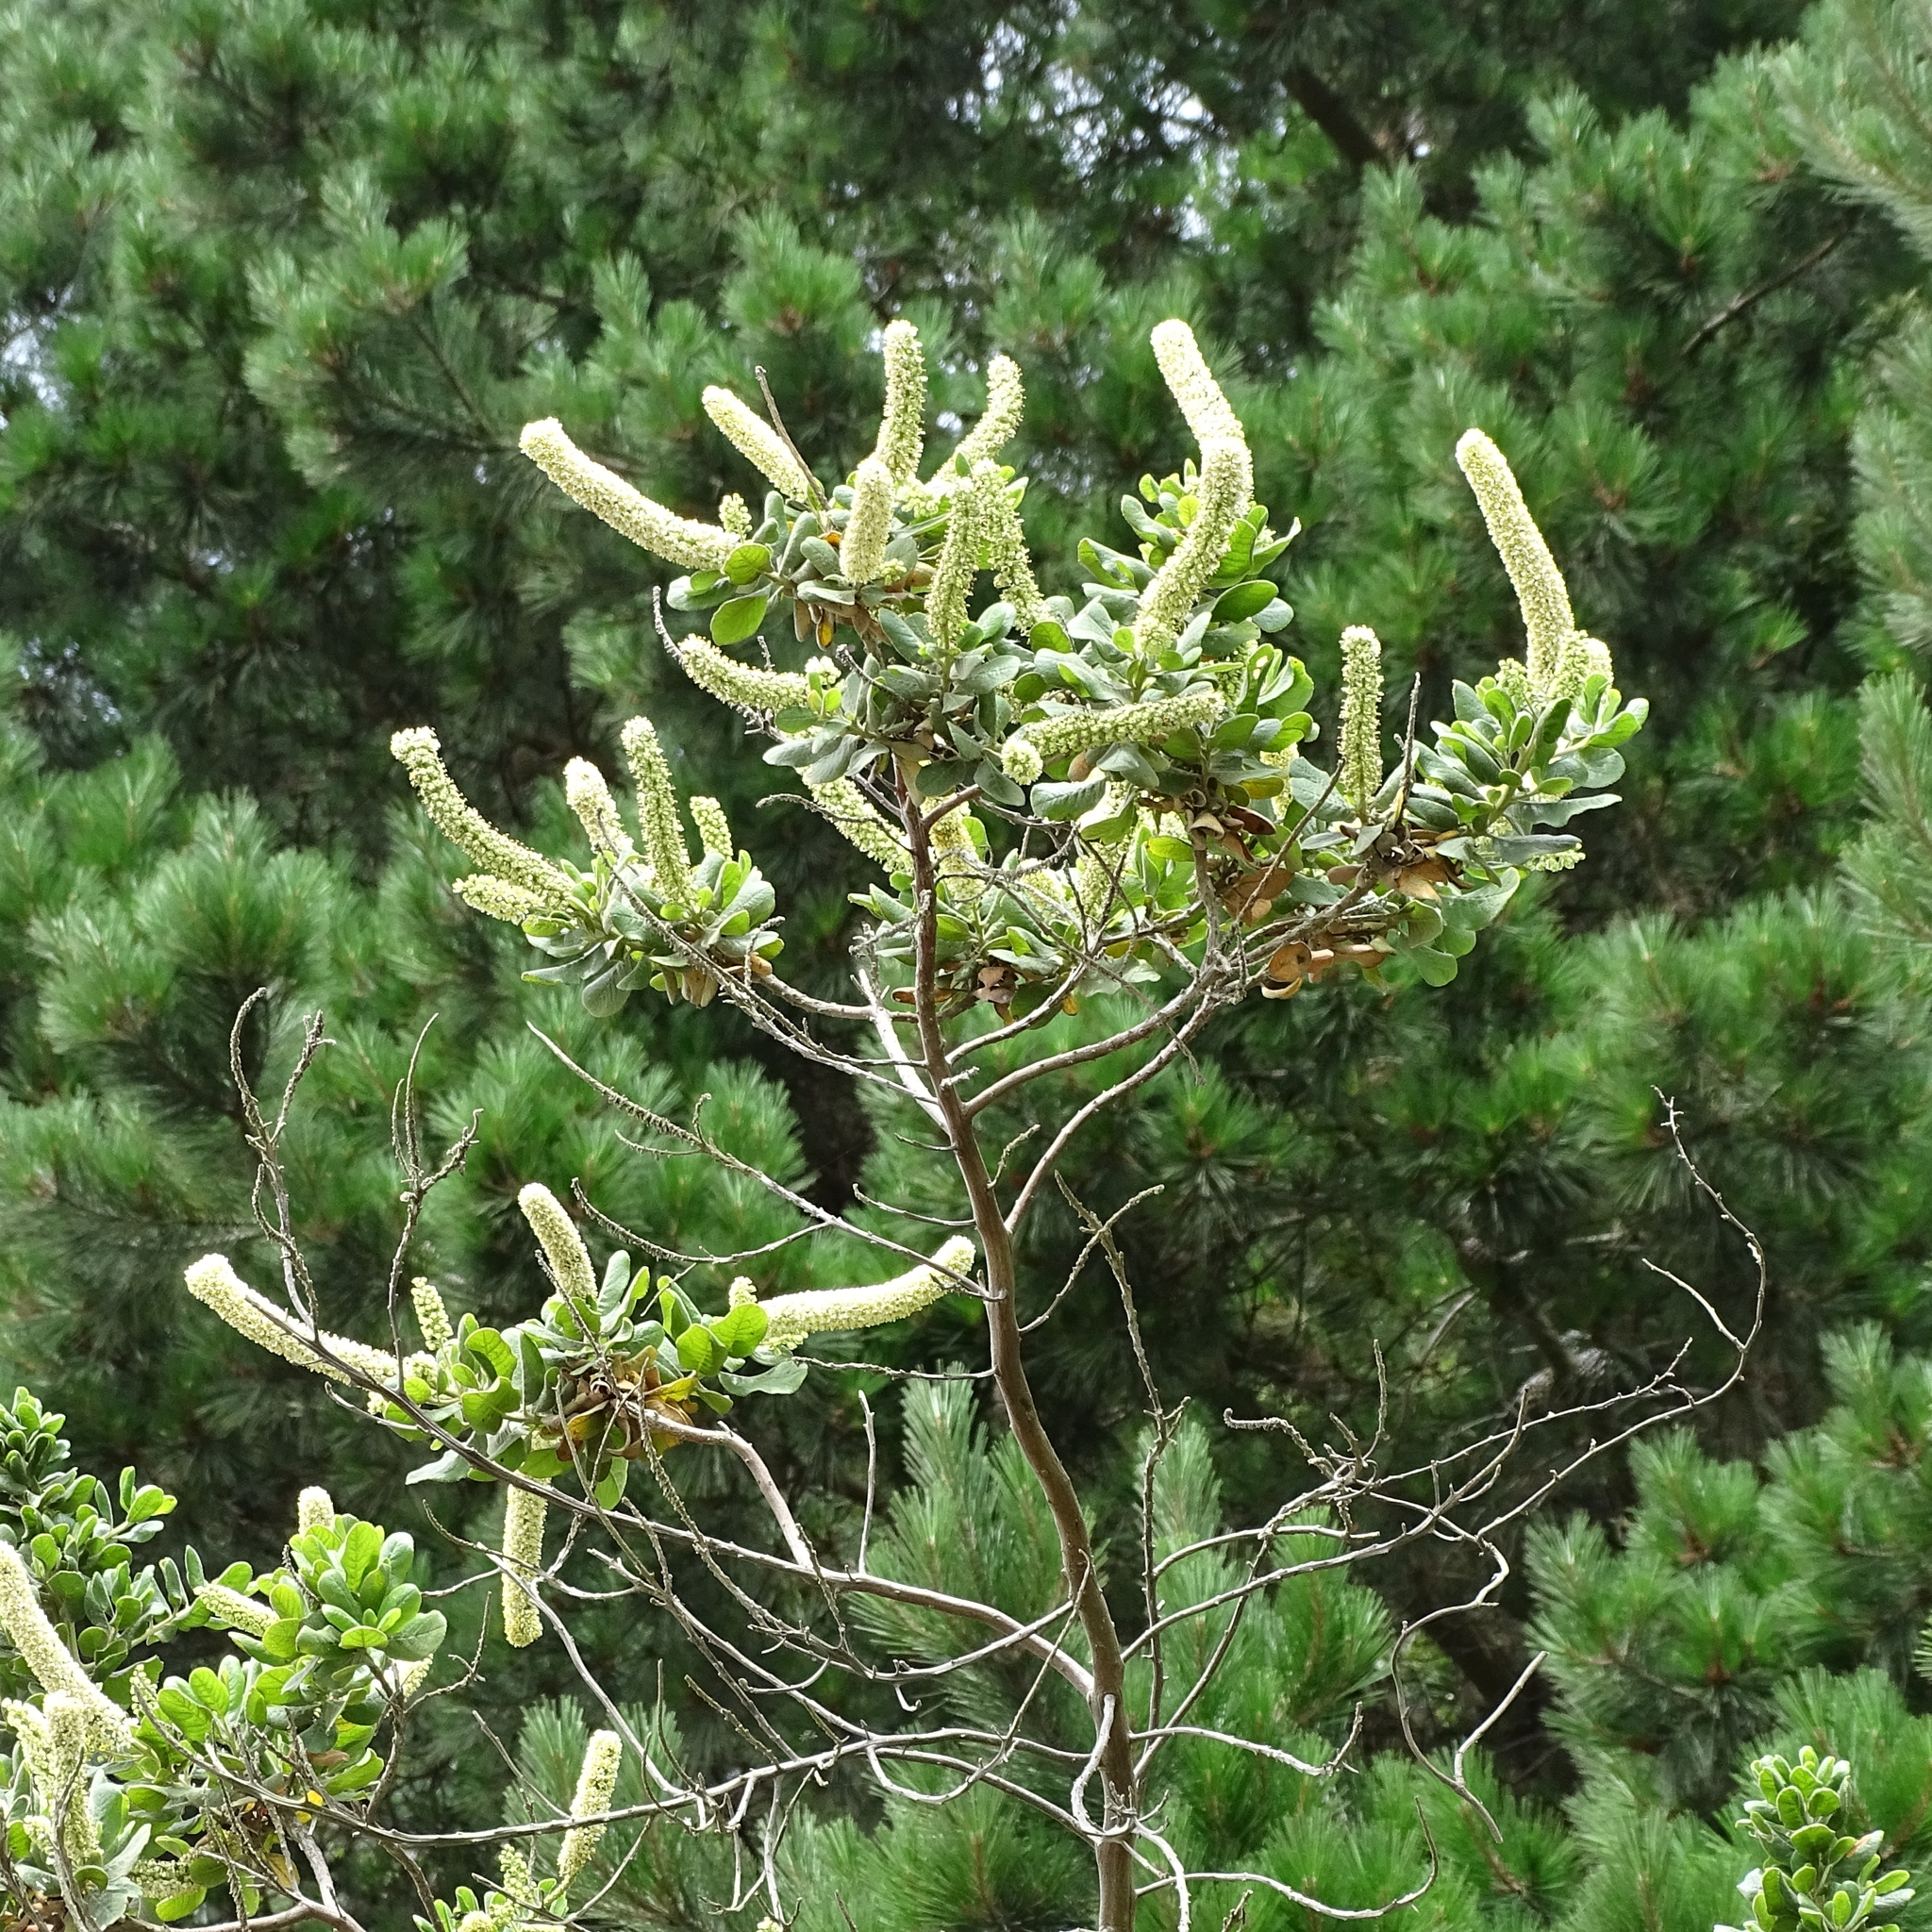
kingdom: Plantae
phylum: Tracheophyta
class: Magnoliopsida
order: Escalloniales
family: Escalloniaceae
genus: Escallonia
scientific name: Escallonia pulverulenta
